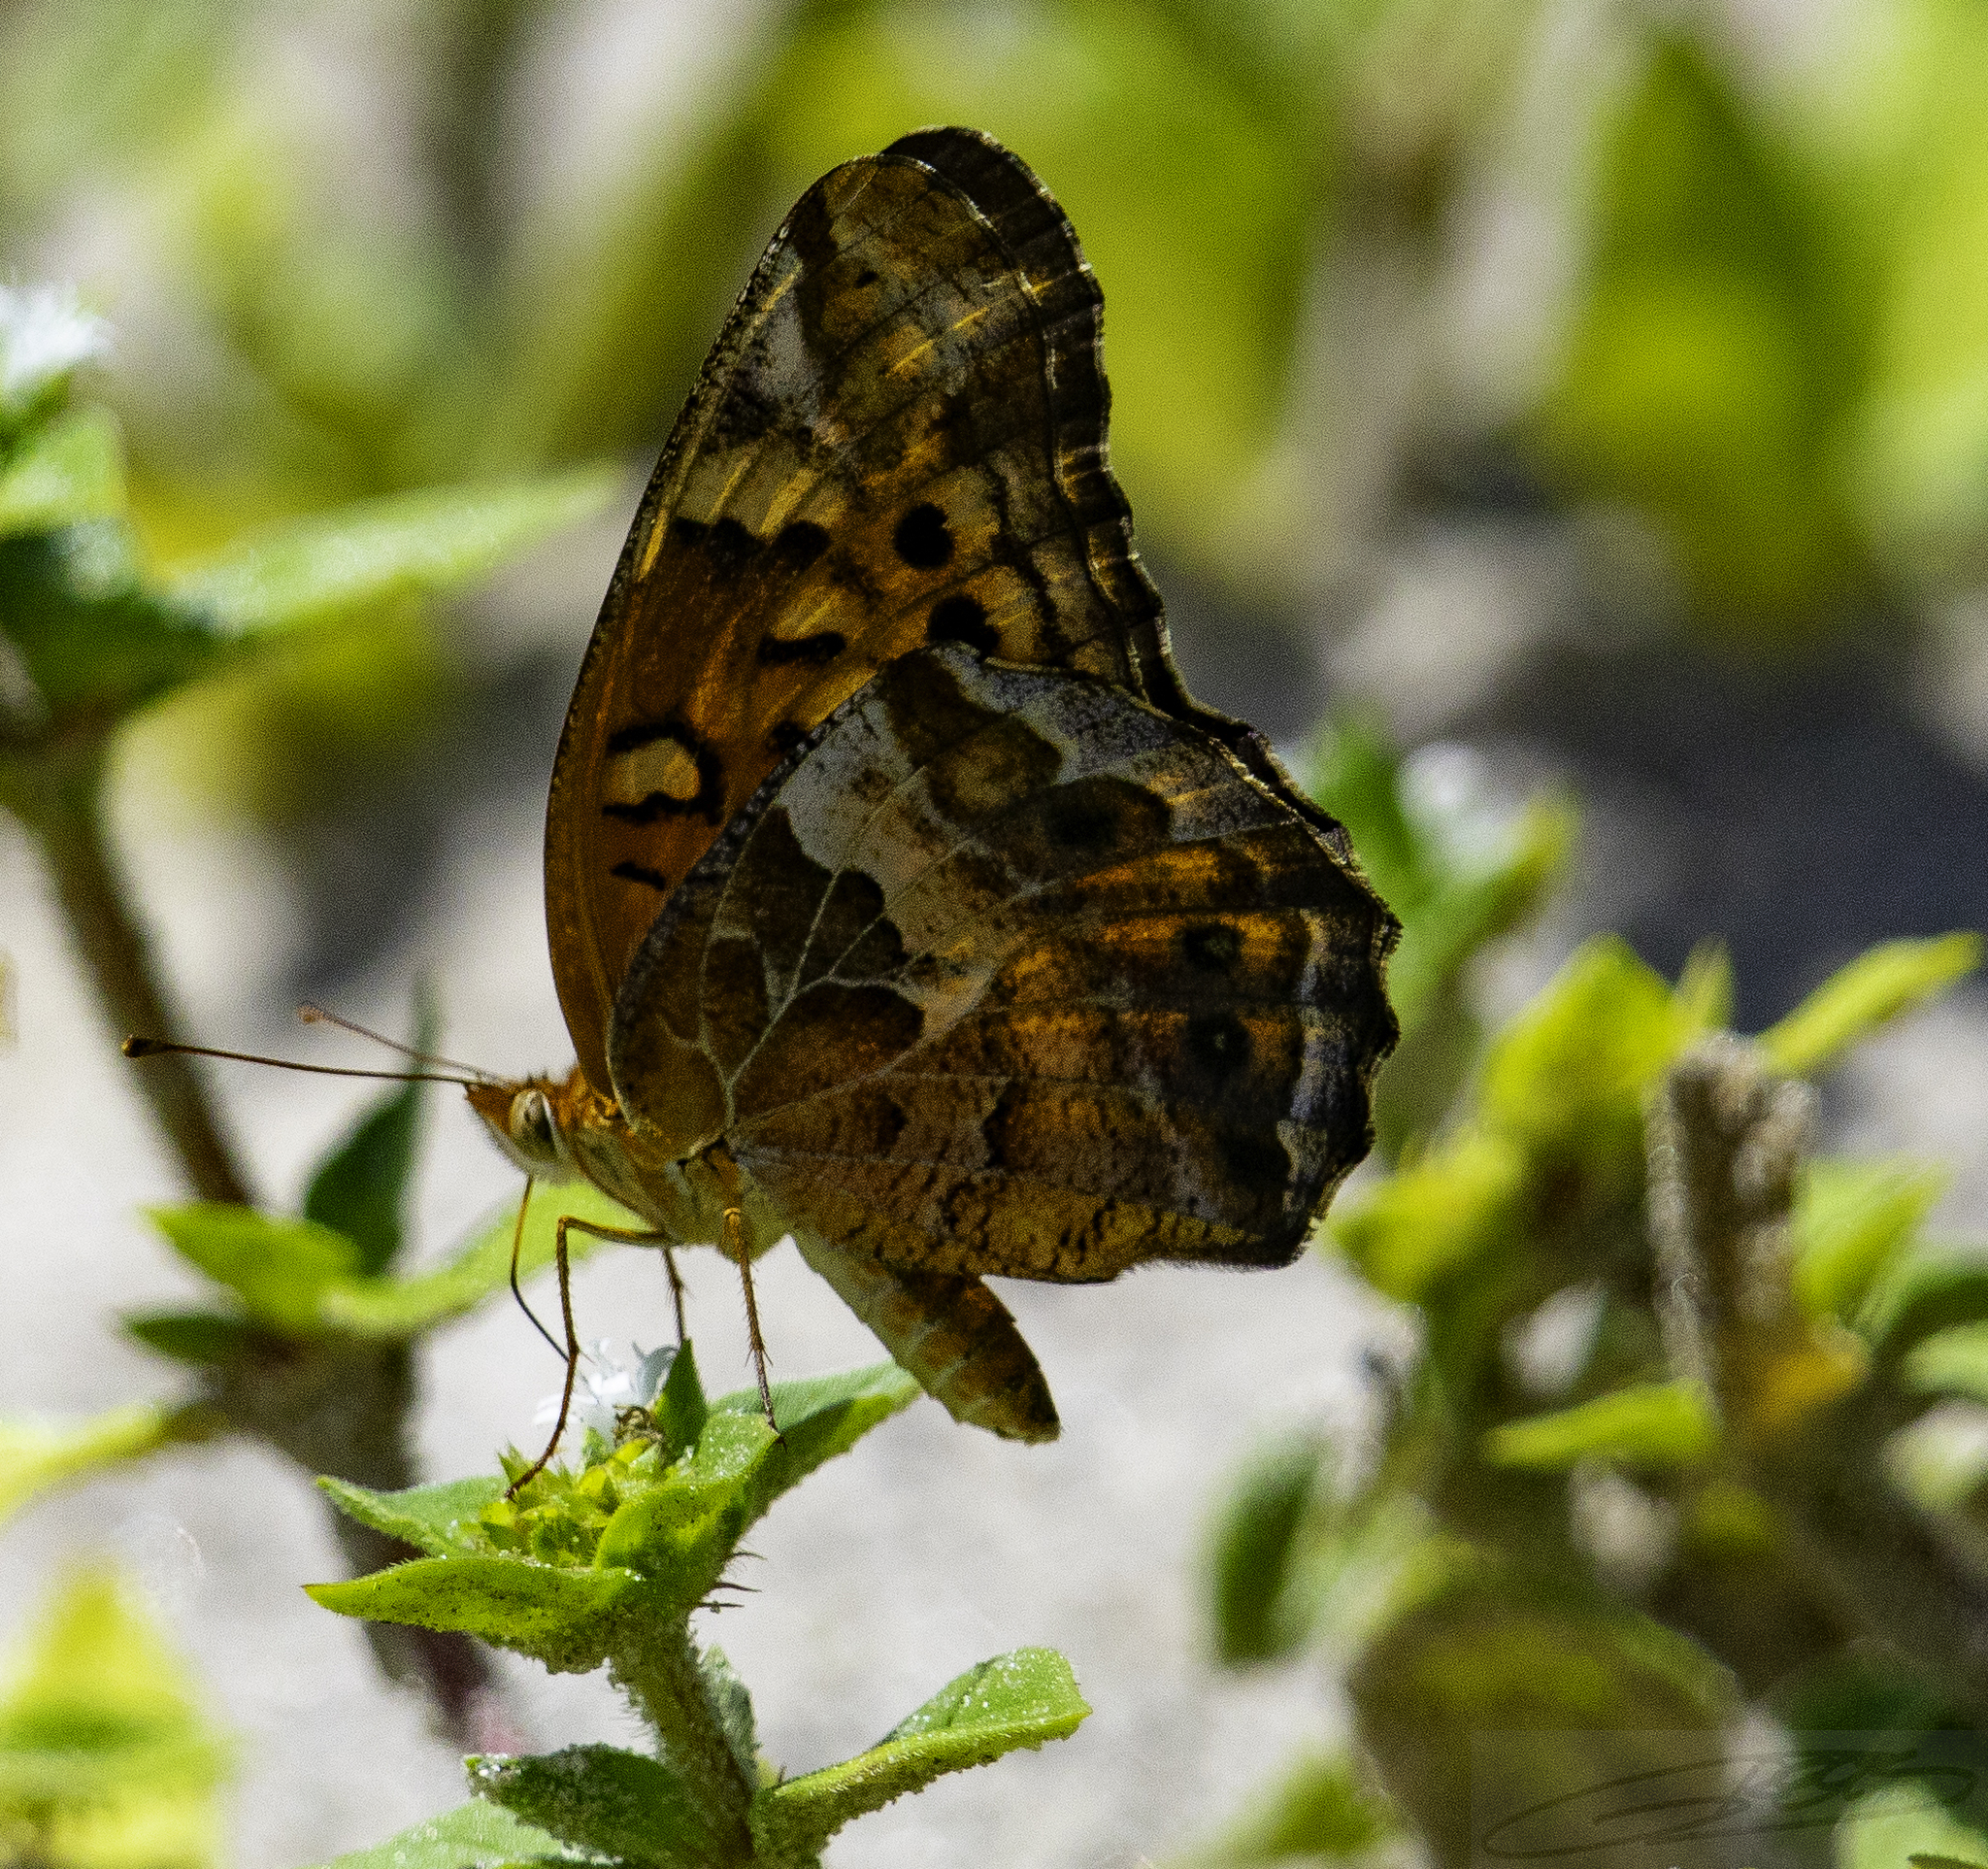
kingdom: Animalia
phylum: Arthropoda
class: Insecta
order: Lepidoptera
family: Nymphalidae
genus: Euptoieta
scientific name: Euptoieta claudia
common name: Variegated fritillary
